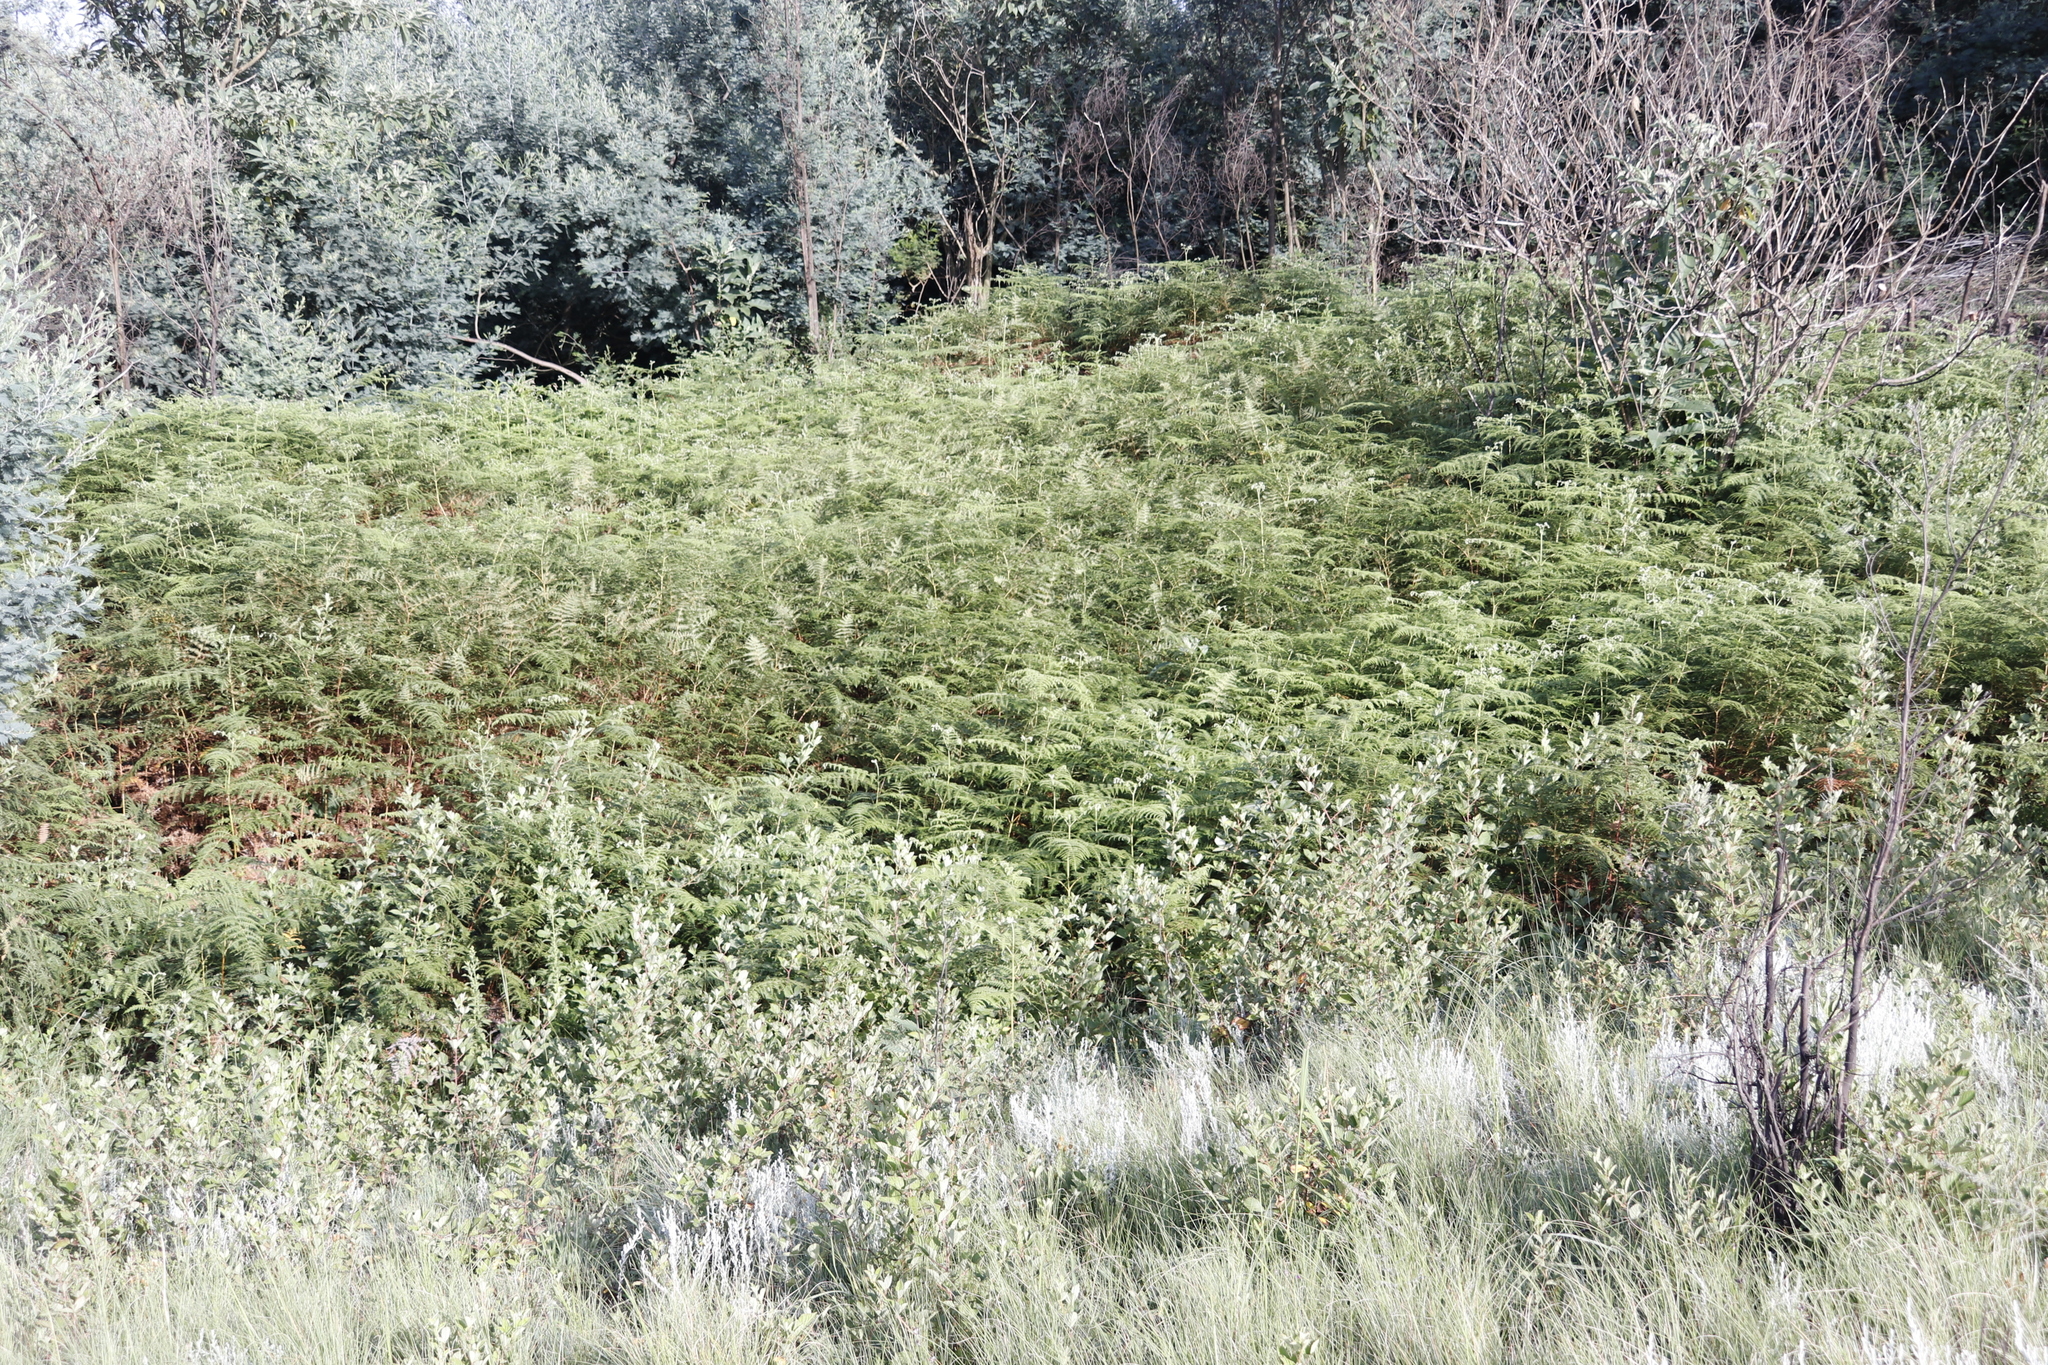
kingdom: Plantae
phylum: Tracheophyta
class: Polypodiopsida
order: Polypodiales
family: Dennstaedtiaceae
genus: Pteridium
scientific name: Pteridium aquilinum
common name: Bracken
